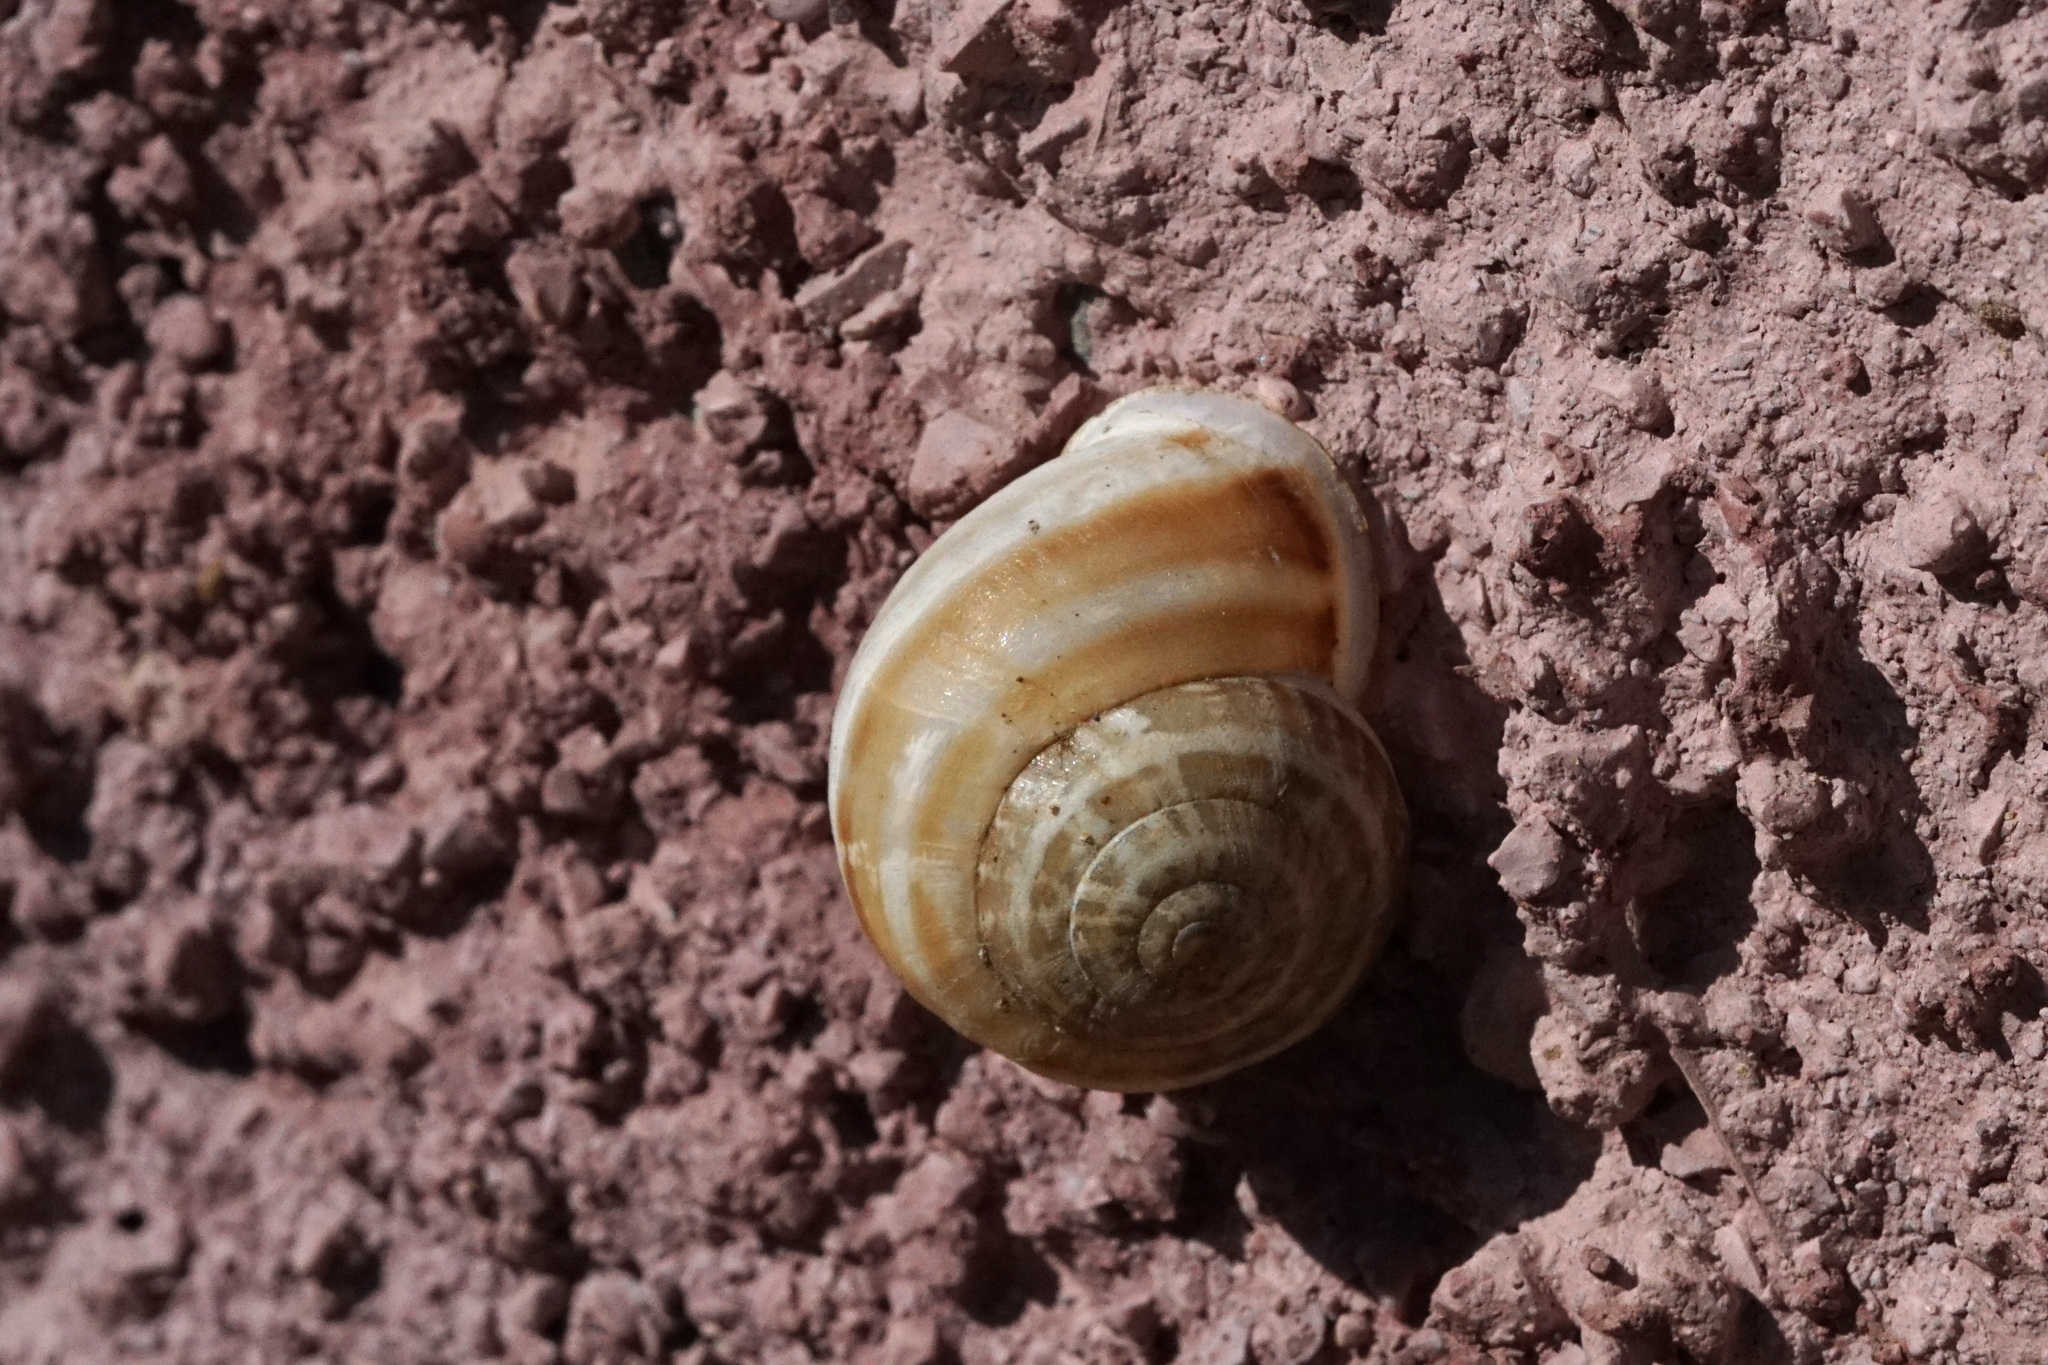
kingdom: Animalia
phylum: Mollusca
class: Gastropoda
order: Stylommatophora
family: Helicidae
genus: Eobania
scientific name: Eobania vermiculata
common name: Chocolateband snail
